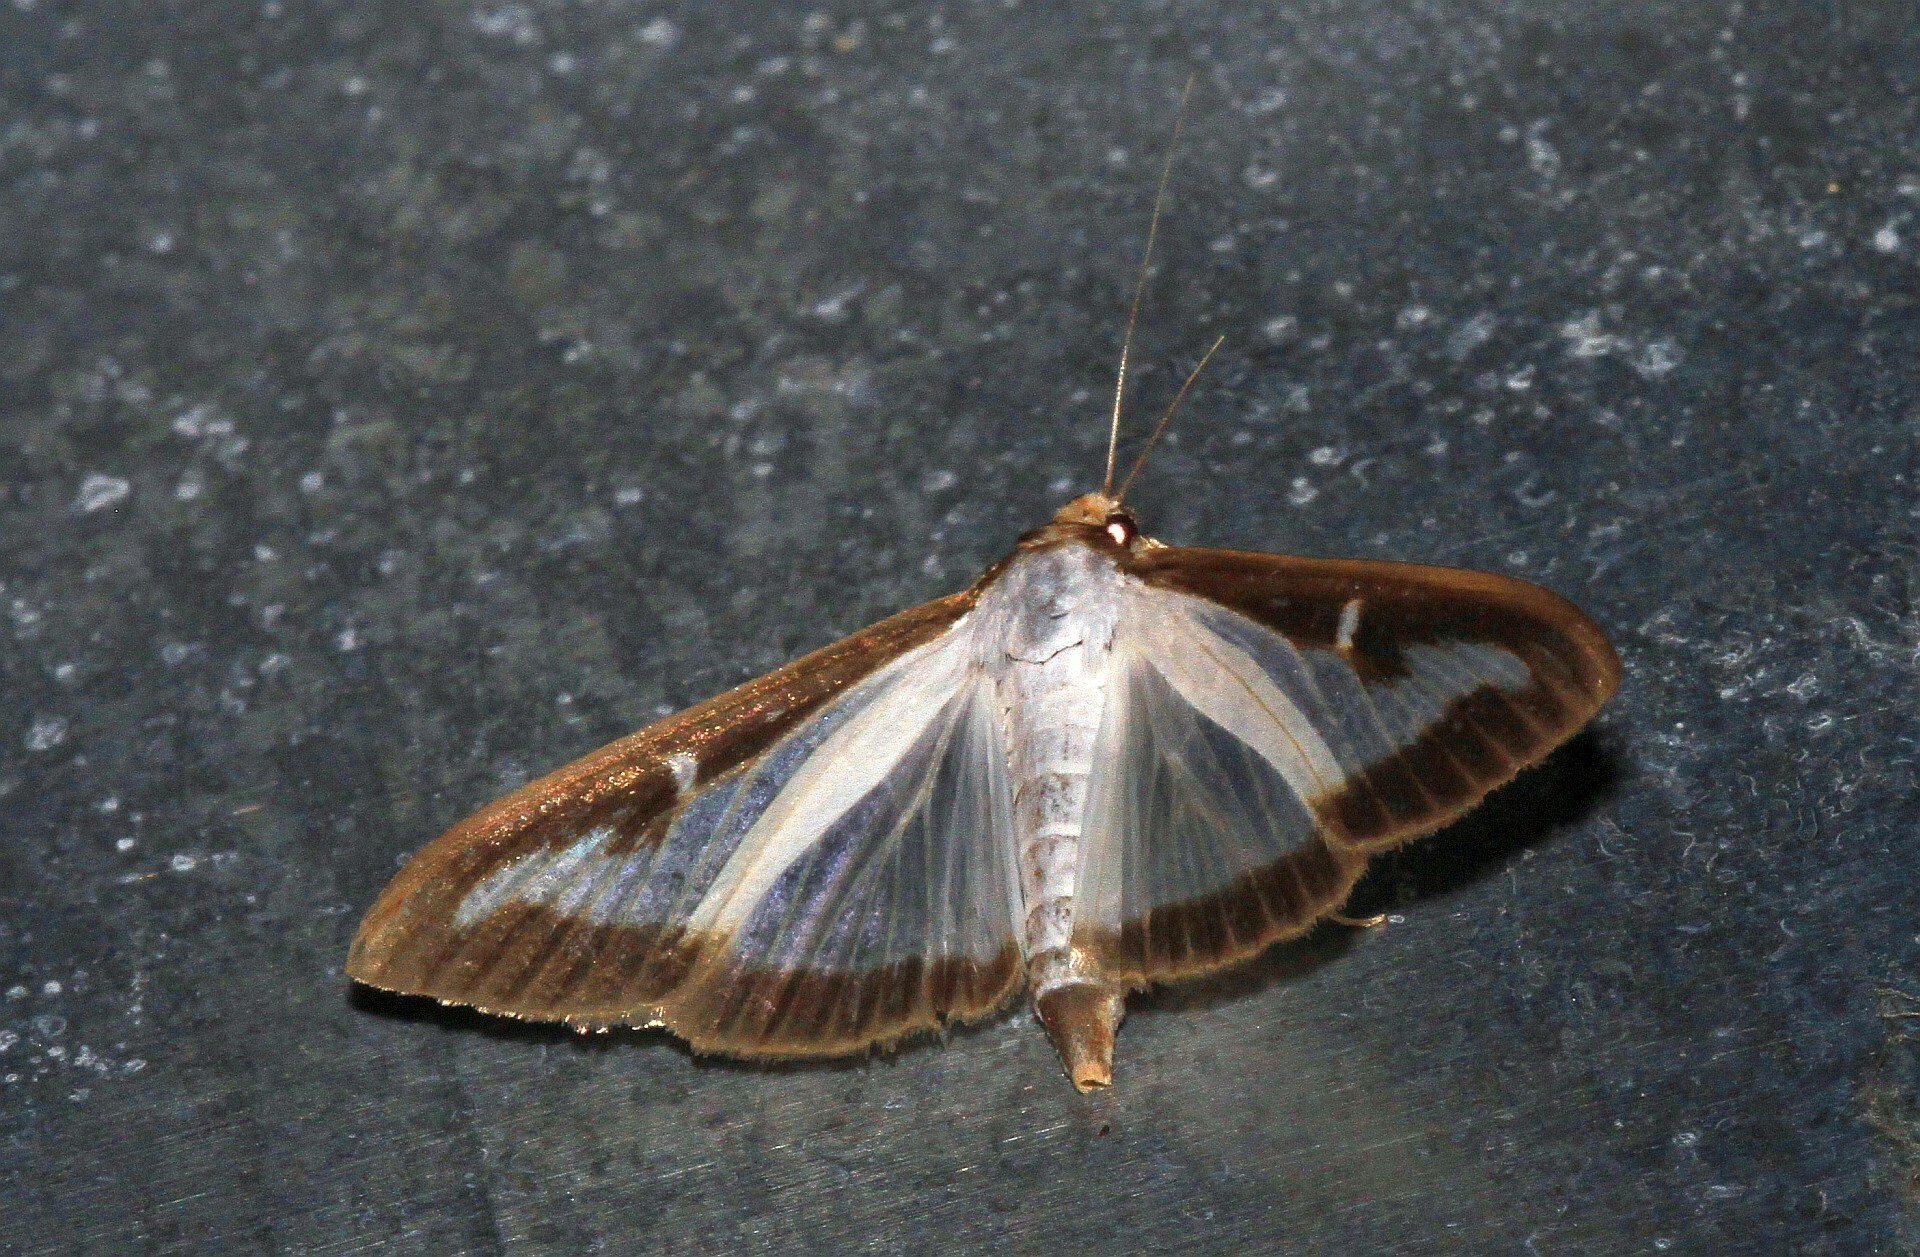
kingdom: Animalia
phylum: Arthropoda
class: Insecta
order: Lepidoptera
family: Crambidae
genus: Cydalima
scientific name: Cydalima perspectalis
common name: Box tree moth
